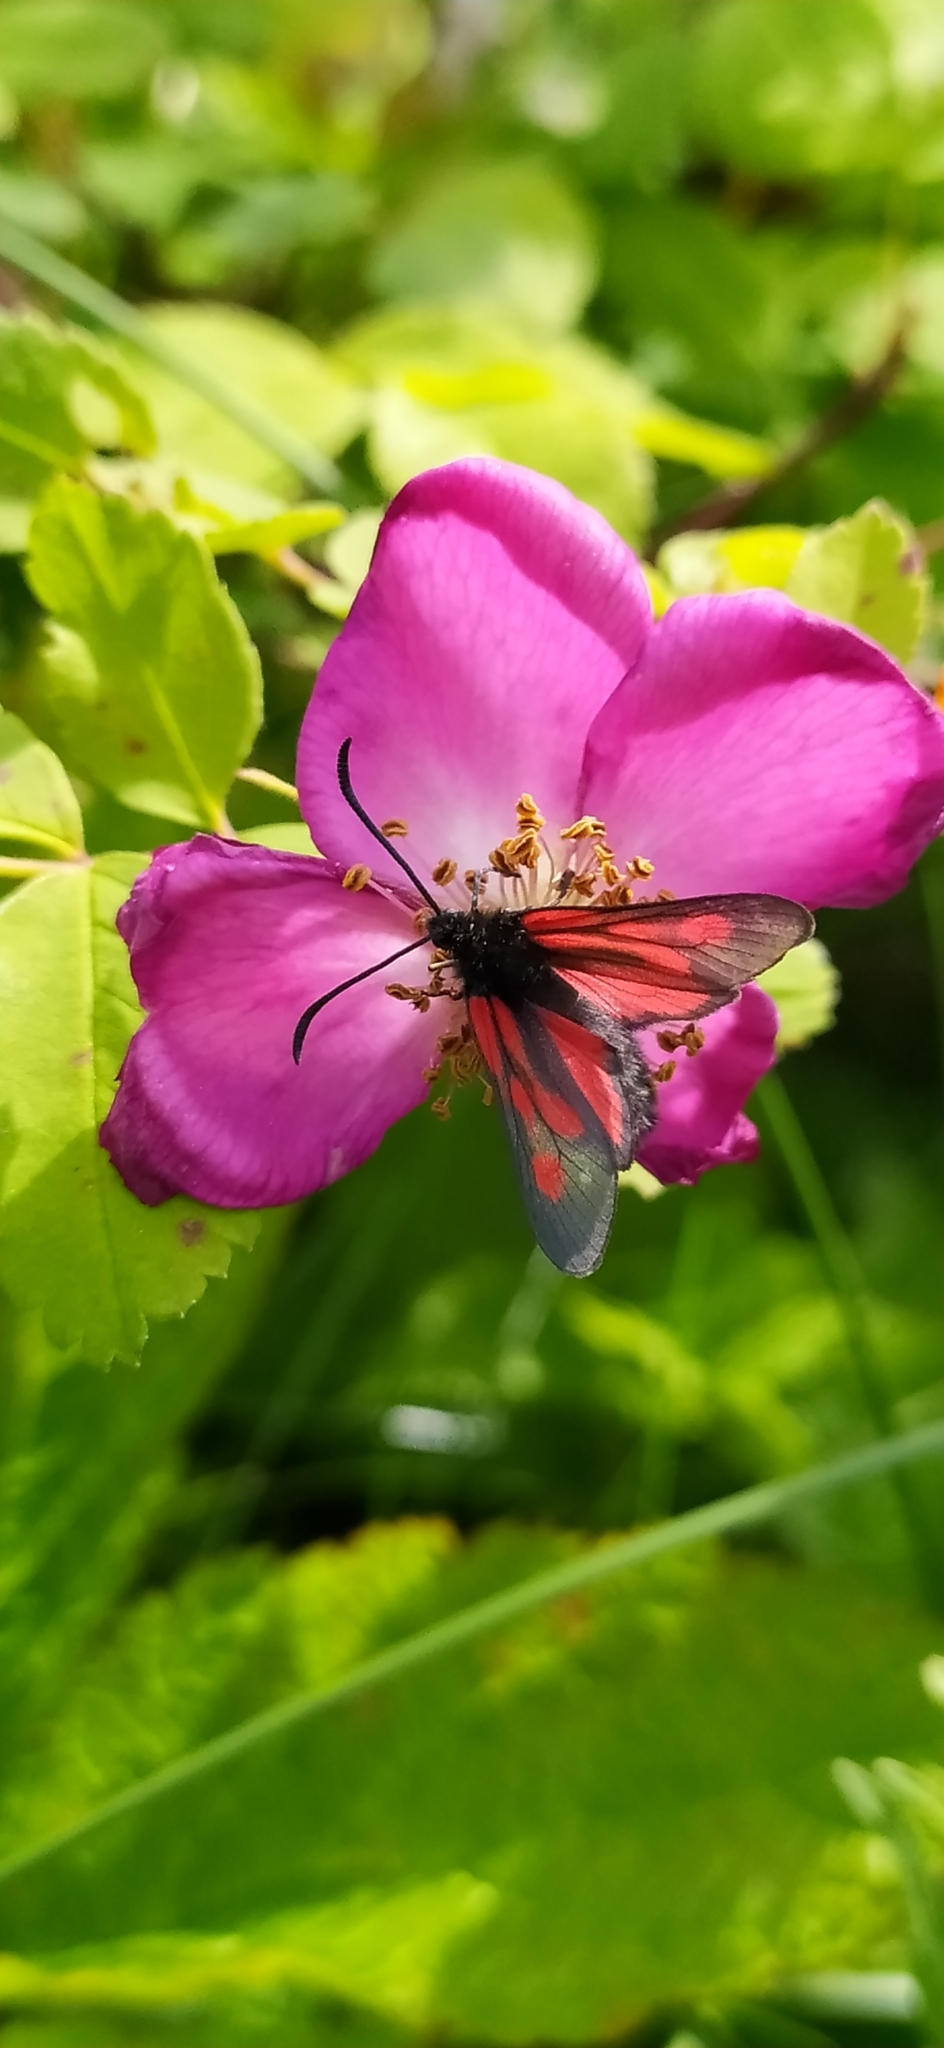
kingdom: Animalia
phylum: Arthropoda
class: Insecta
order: Lepidoptera
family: Zygaenidae
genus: Zygaena
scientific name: Zygaena osterodensis
